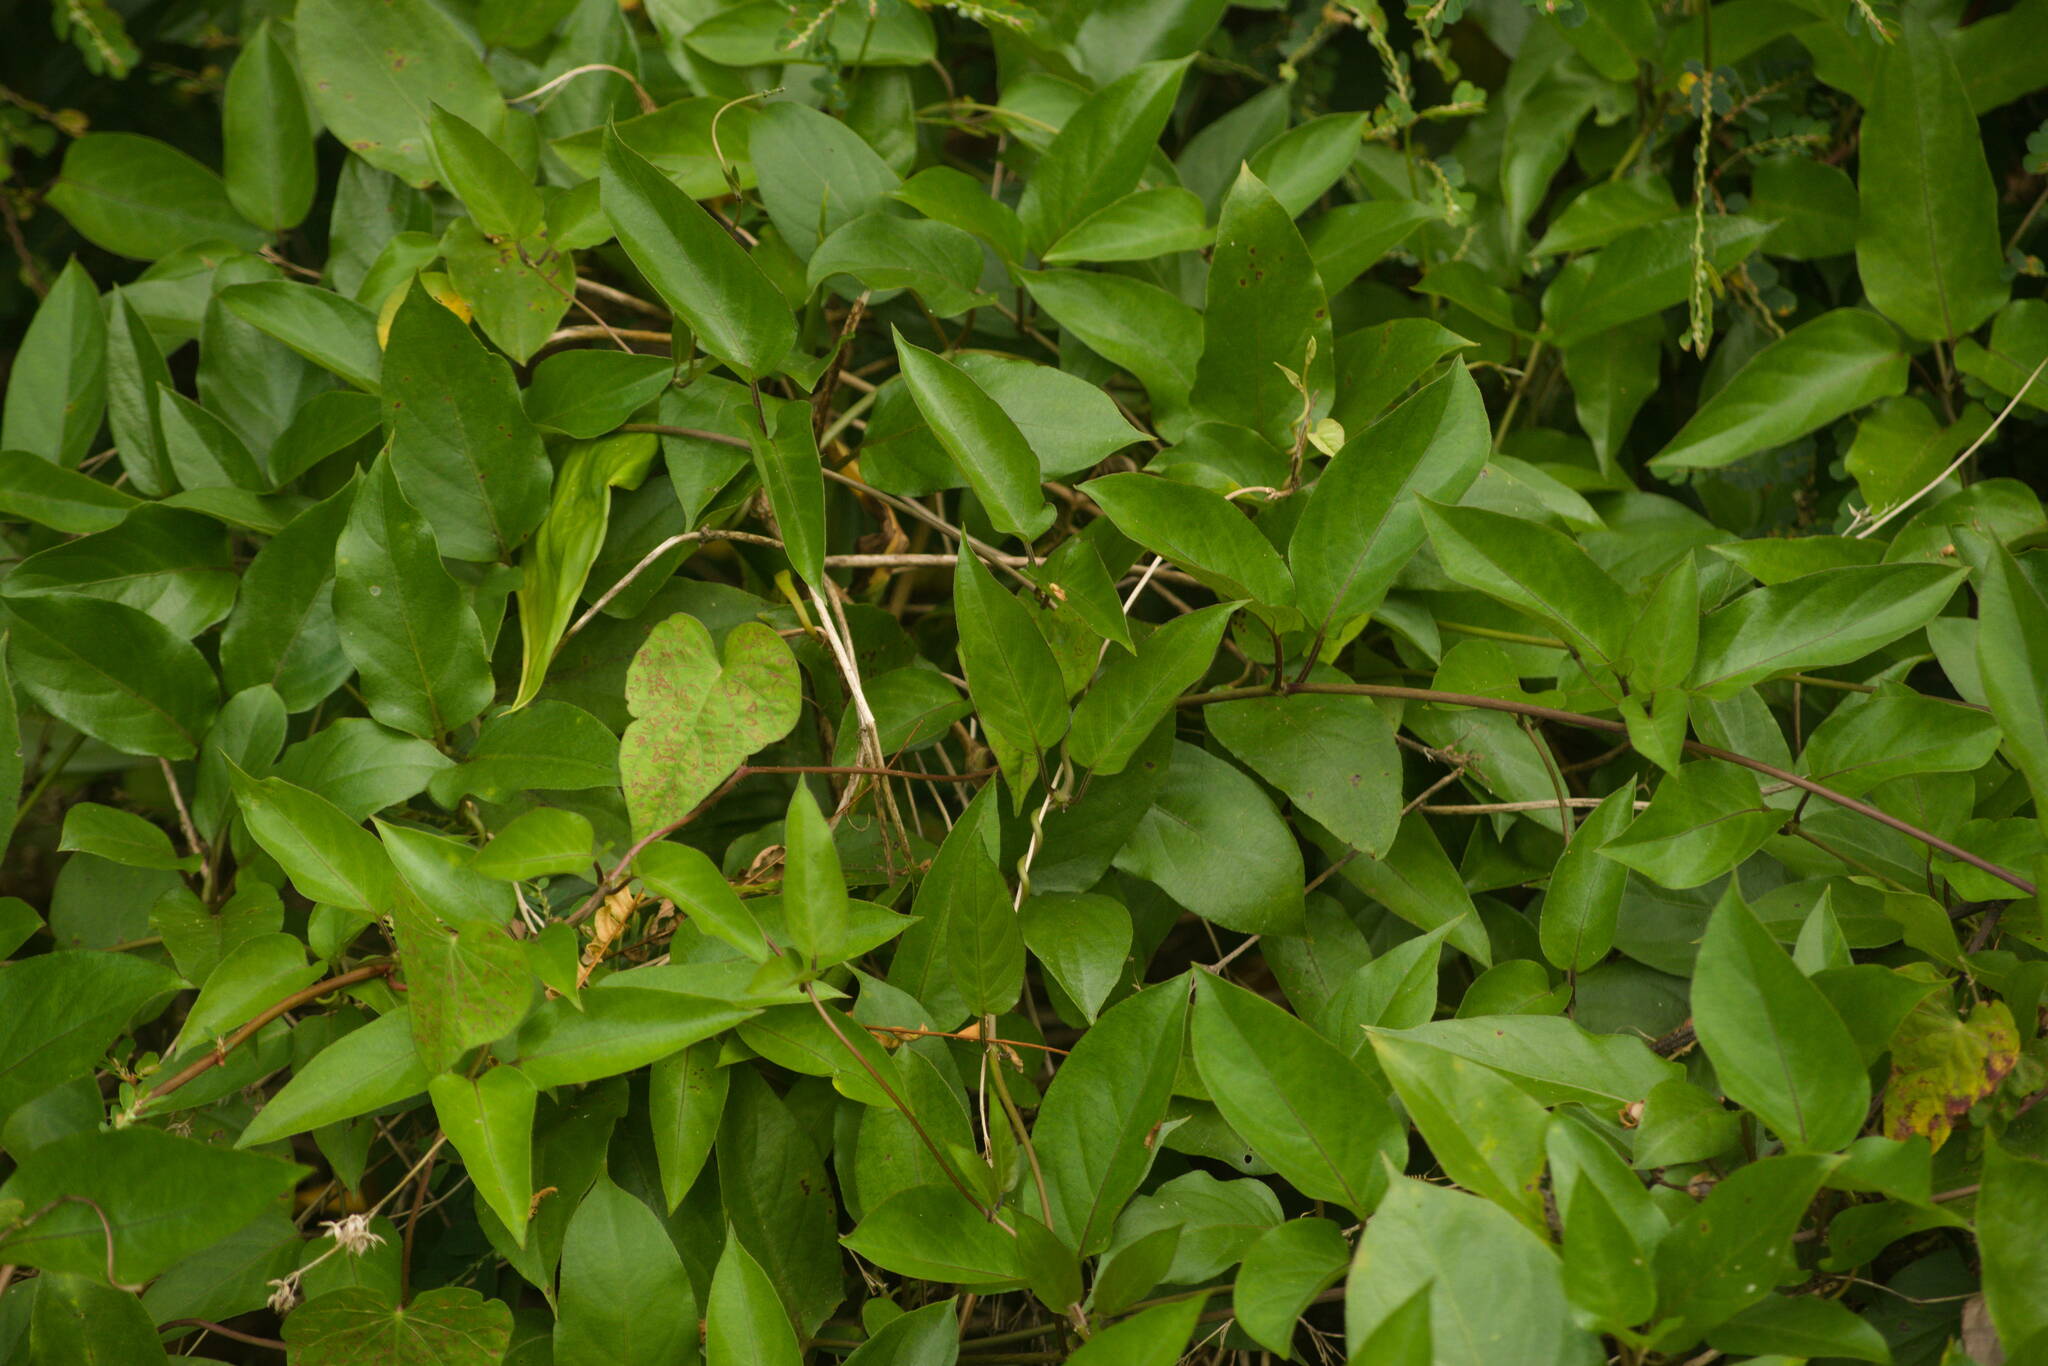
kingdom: Plantae
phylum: Tracheophyta
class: Magnoliopsida
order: Gentianales
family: Rubiaceae
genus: Paederia
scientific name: Paederia foetida
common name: Stinkvine
